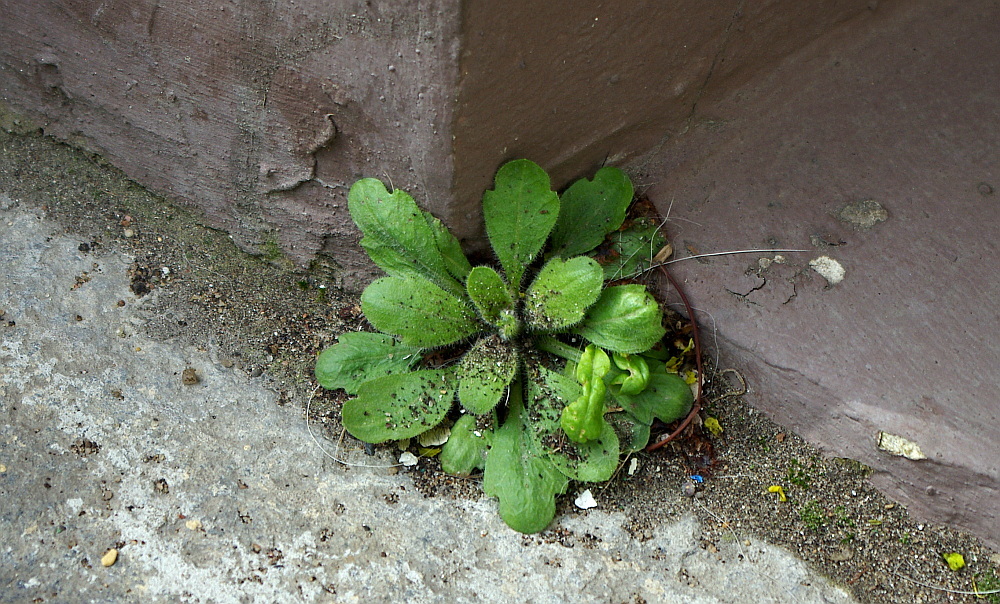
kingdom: Plantae
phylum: Tracheophyta
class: Magnoliopsida
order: Asterales
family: Asteraceae
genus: Erigeron
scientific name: Erigeron canadensis
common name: Canadian fleabane
